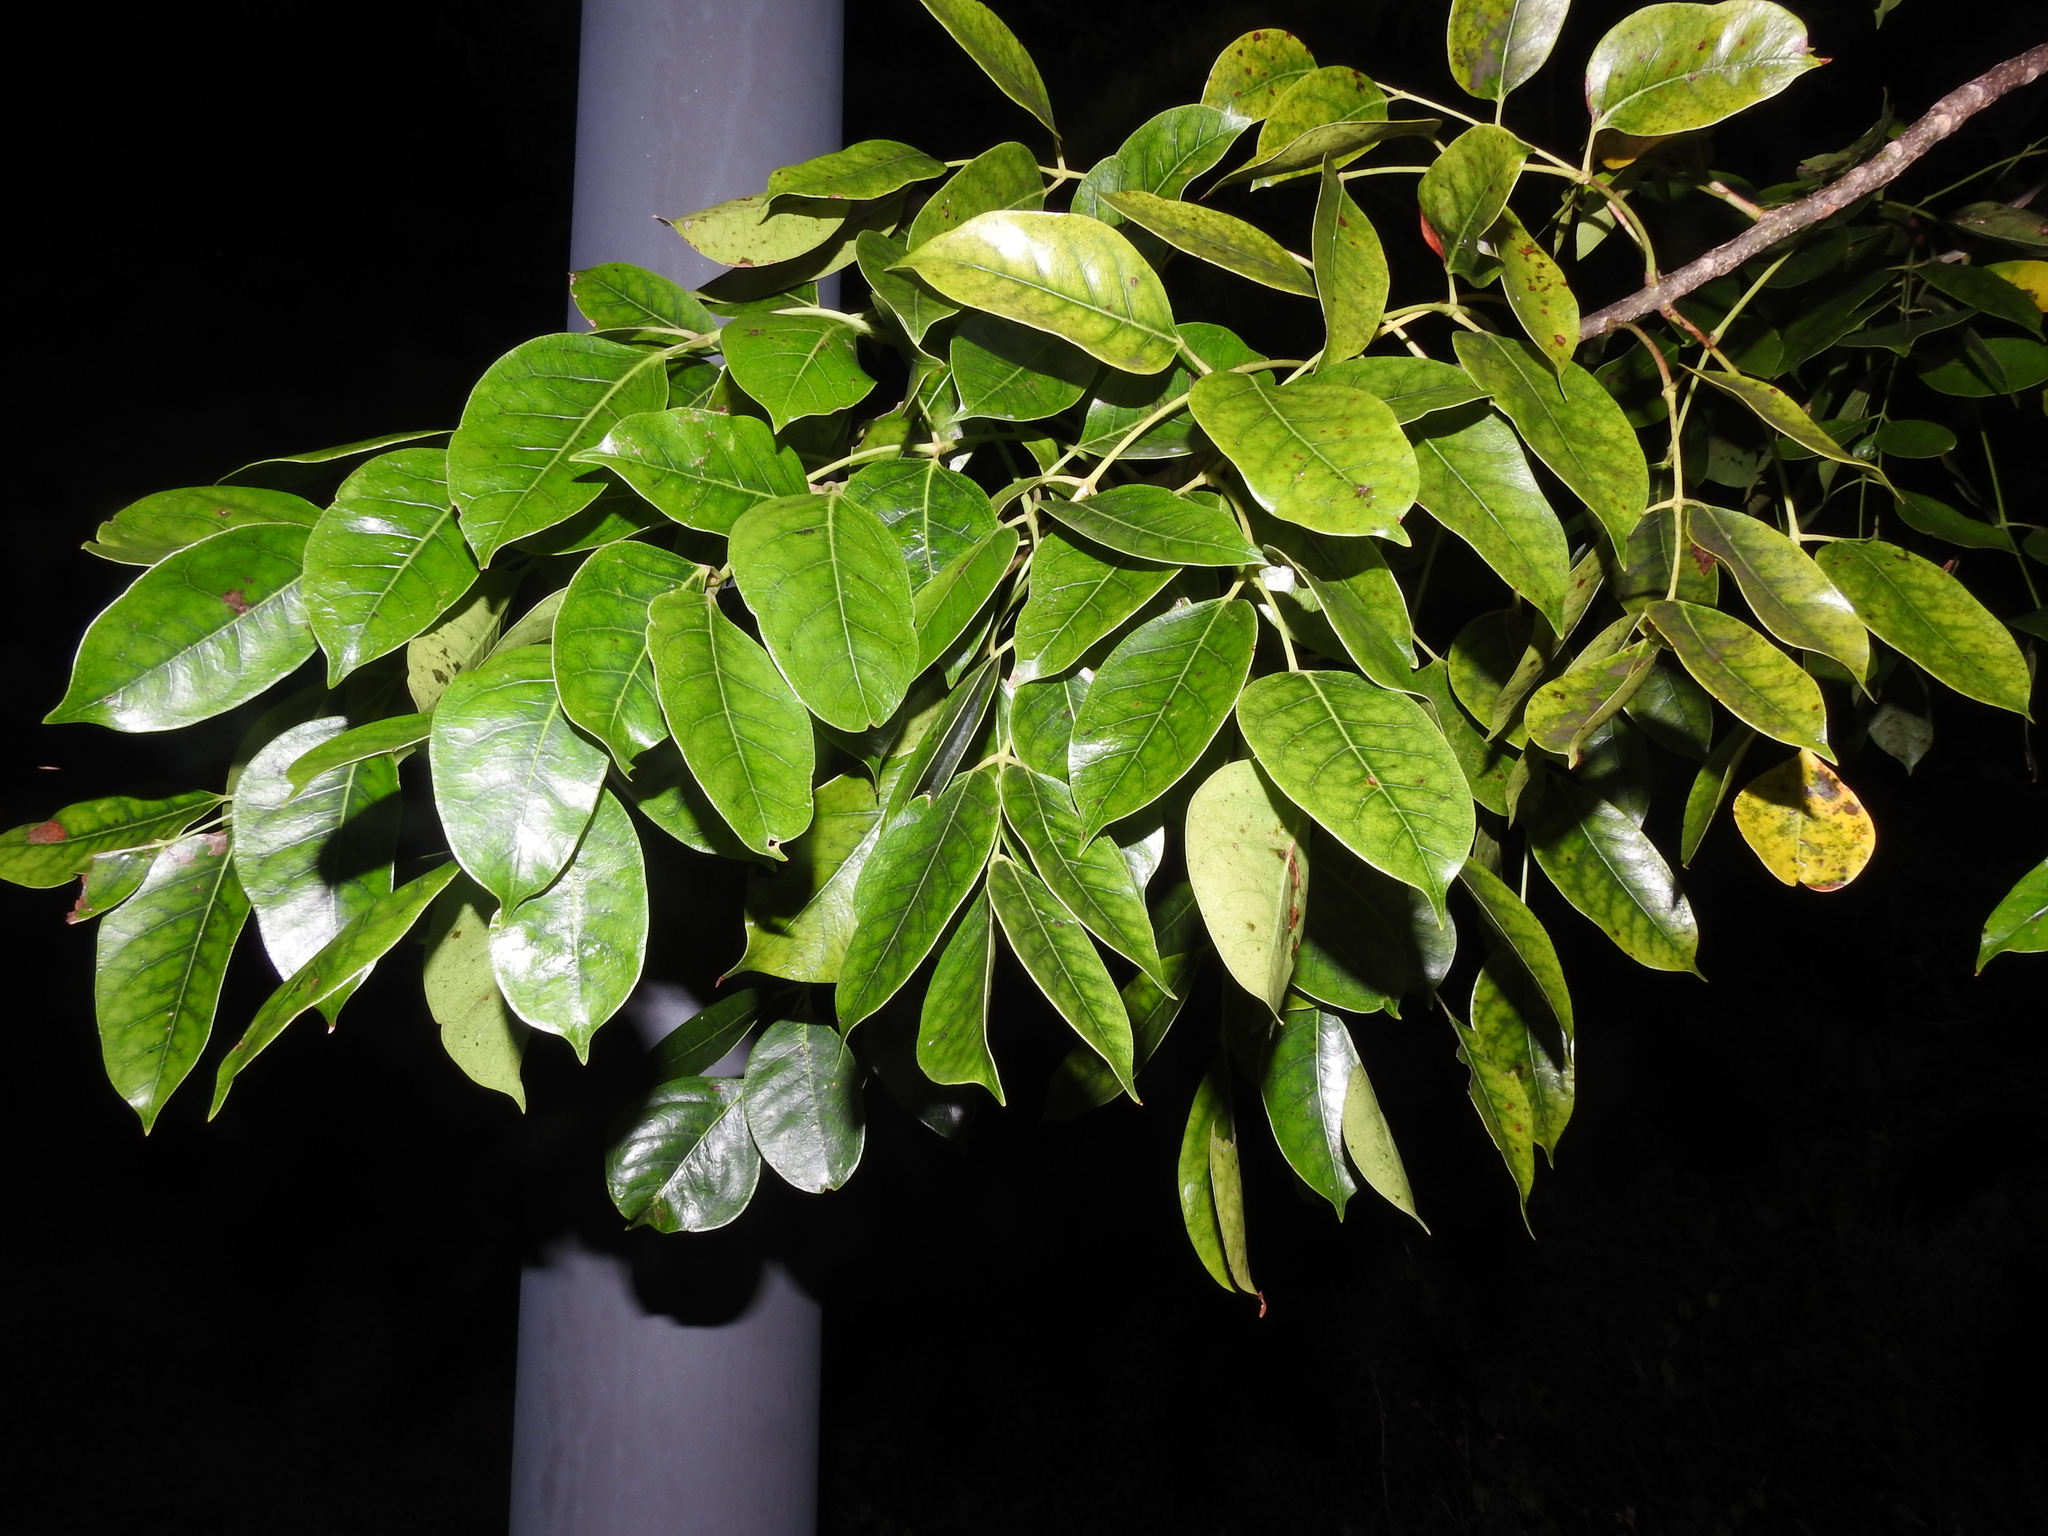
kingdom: Plantae
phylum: Tracheophyta
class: Magnoliopsida
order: Sapindales
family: Burseraceae
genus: Bursera
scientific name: Bursera simaruba
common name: Turpentine tree
